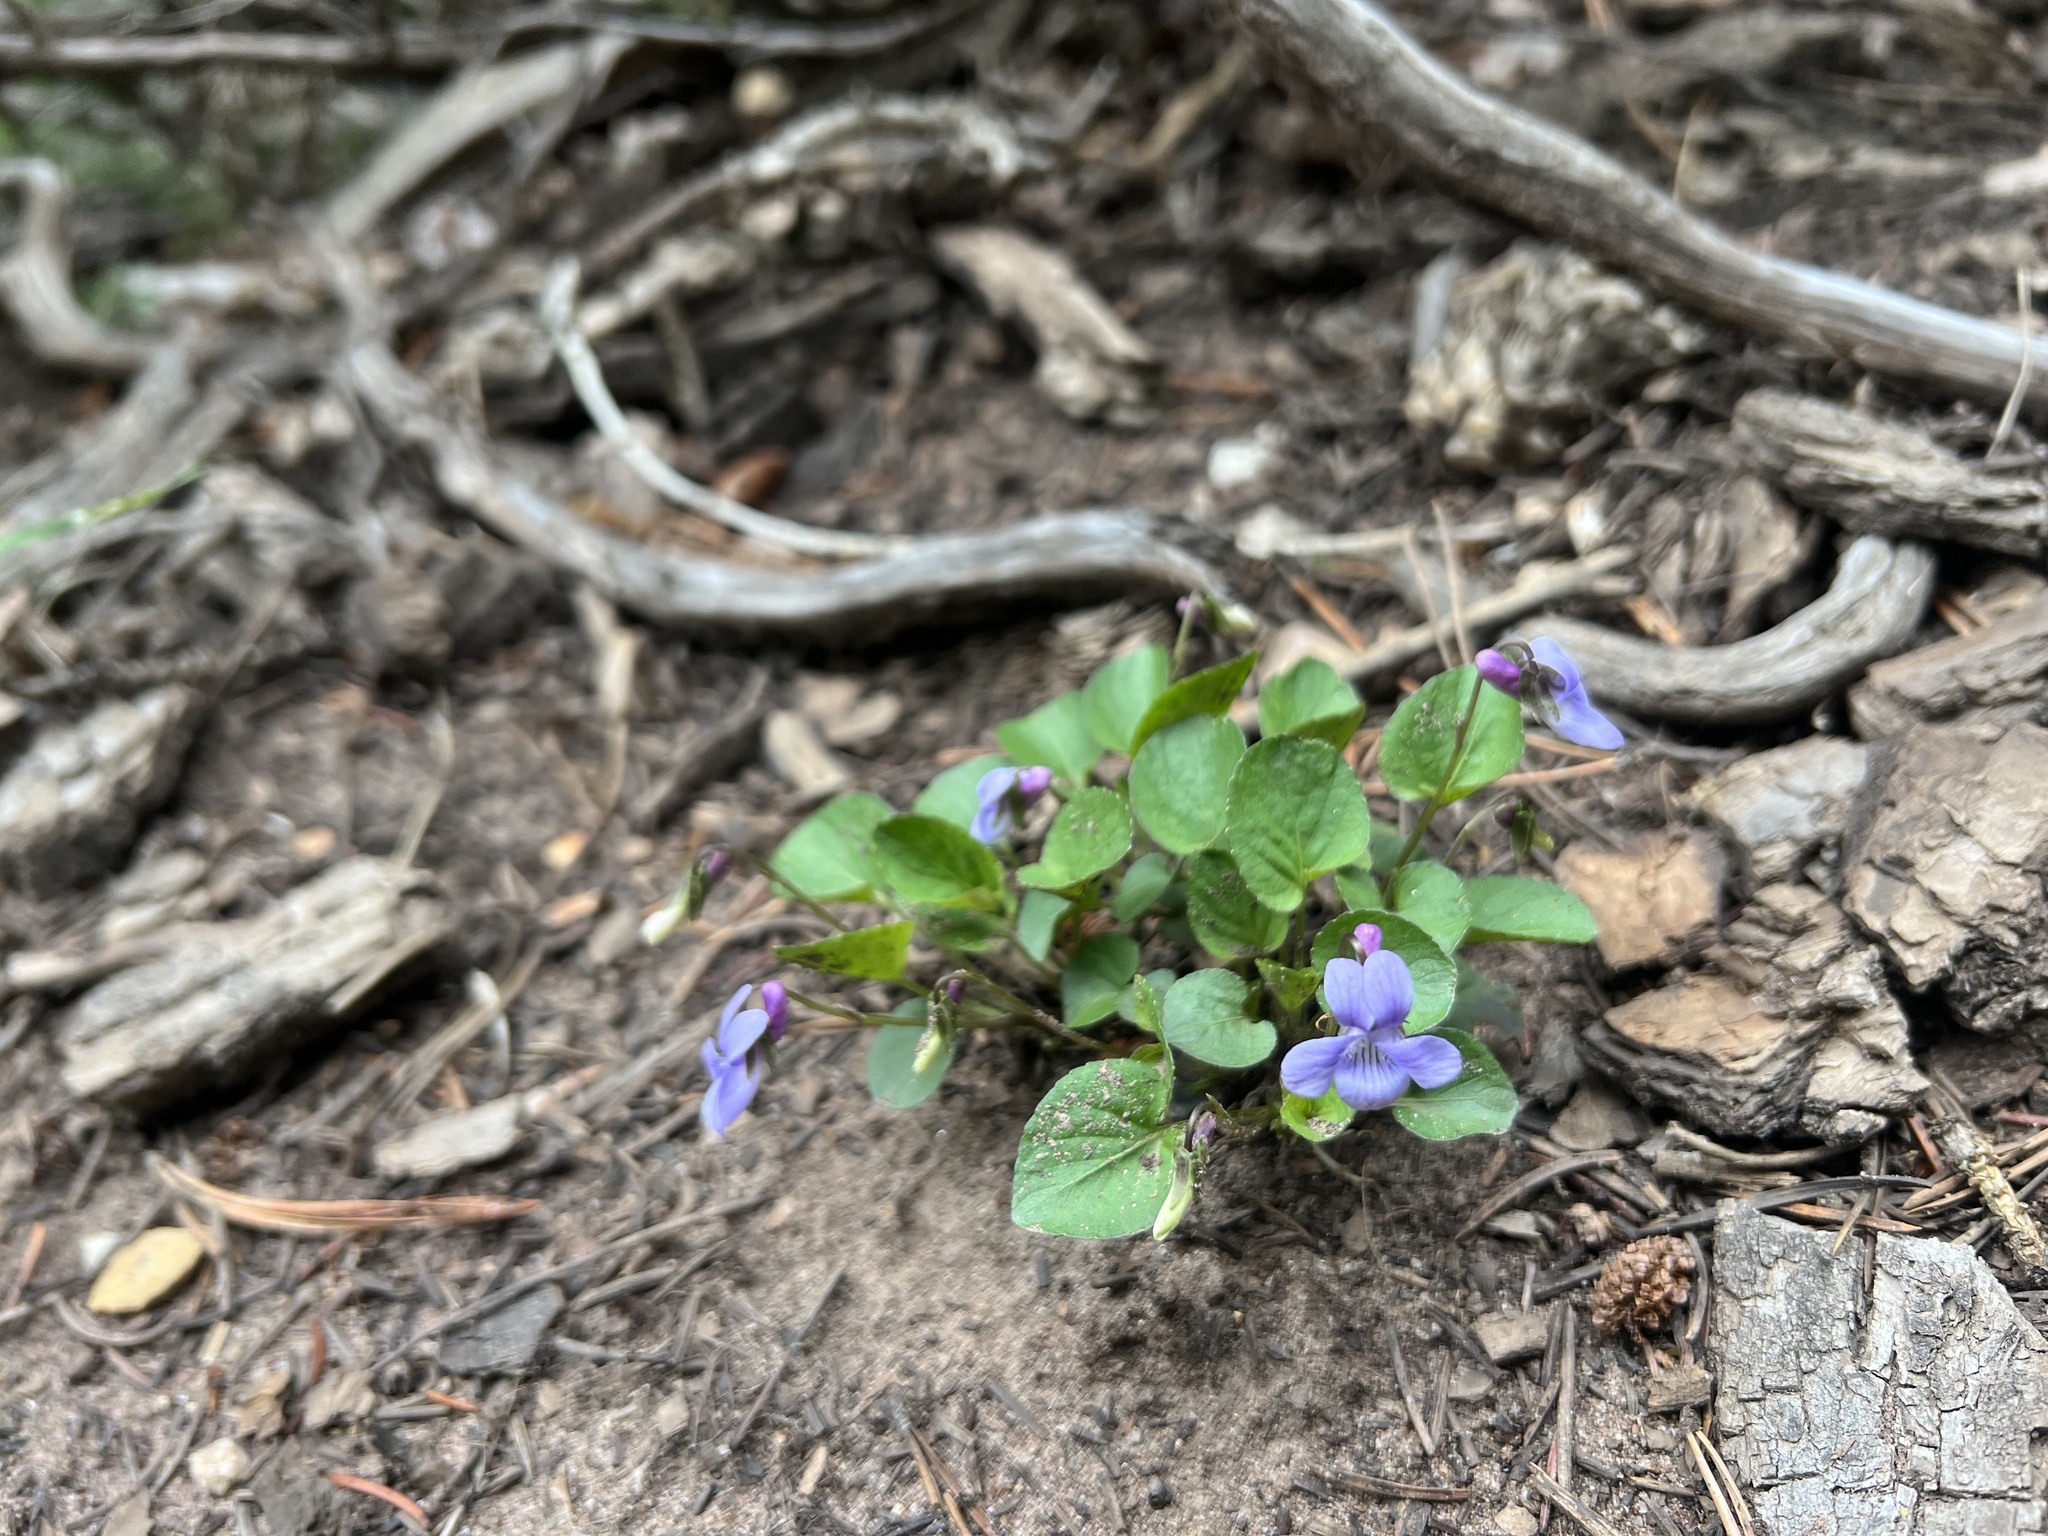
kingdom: Plantae
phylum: Tracheophyta
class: Magnoliopsida
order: Malpighiales
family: Violaceae
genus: Viola
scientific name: Viola adunca
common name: Sand violet
